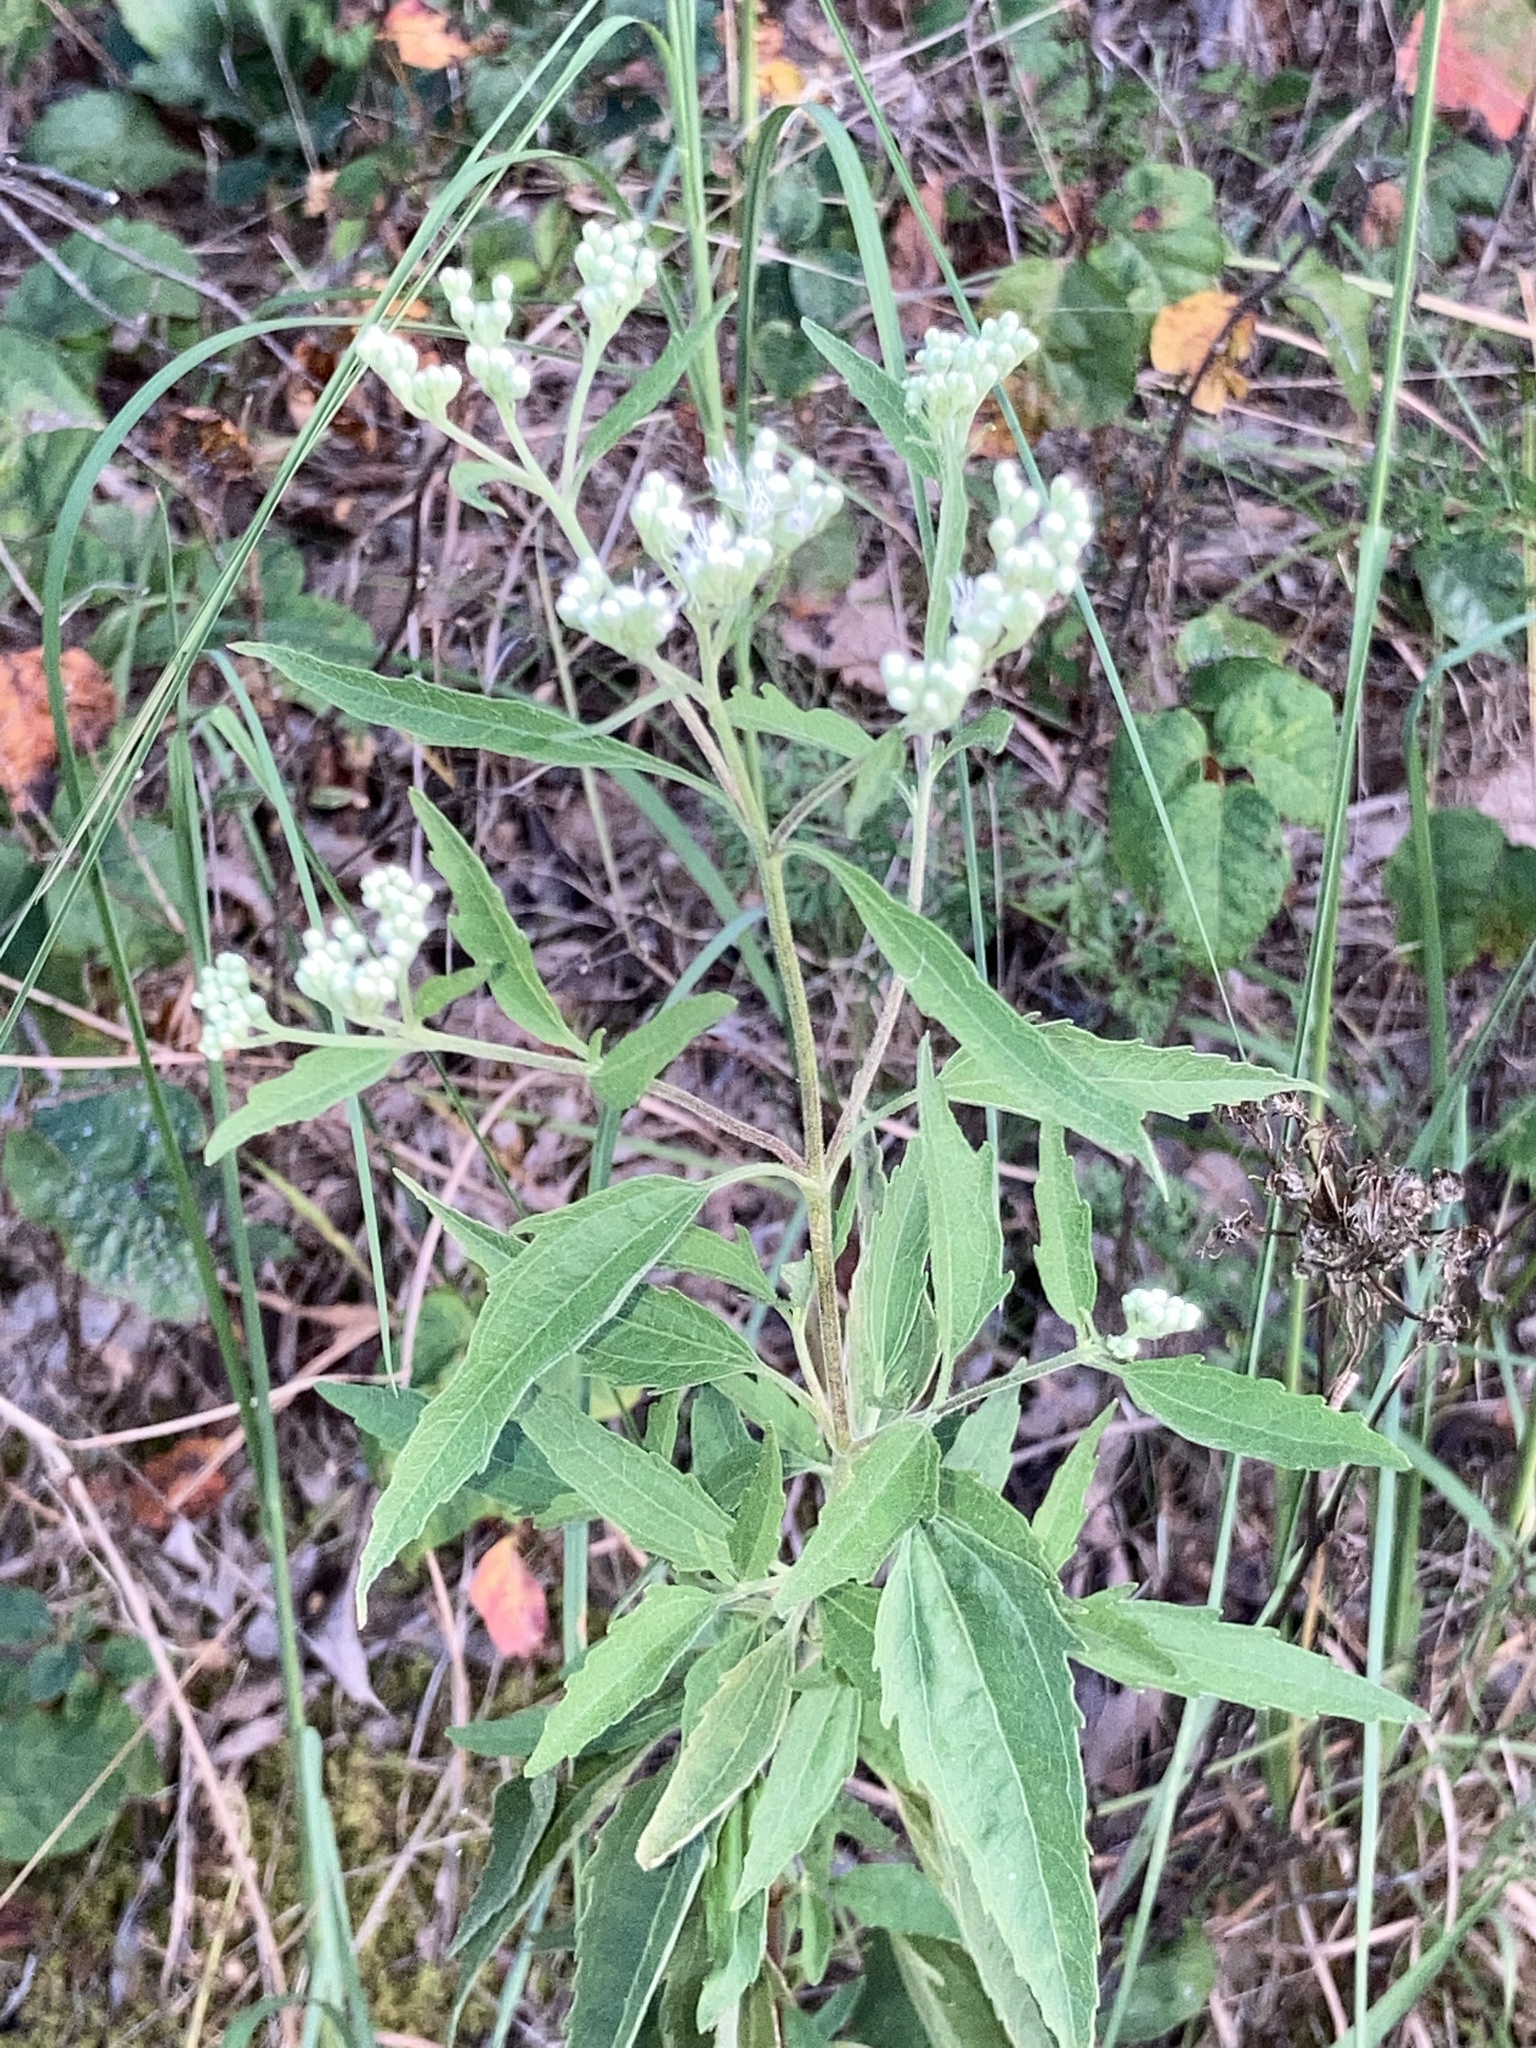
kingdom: Plantae
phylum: Tracheophyta
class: Magnoliopsida
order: Asterales
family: Asteraceae
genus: Eupatorium
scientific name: Eupatorium serotinum
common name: Late boneset
